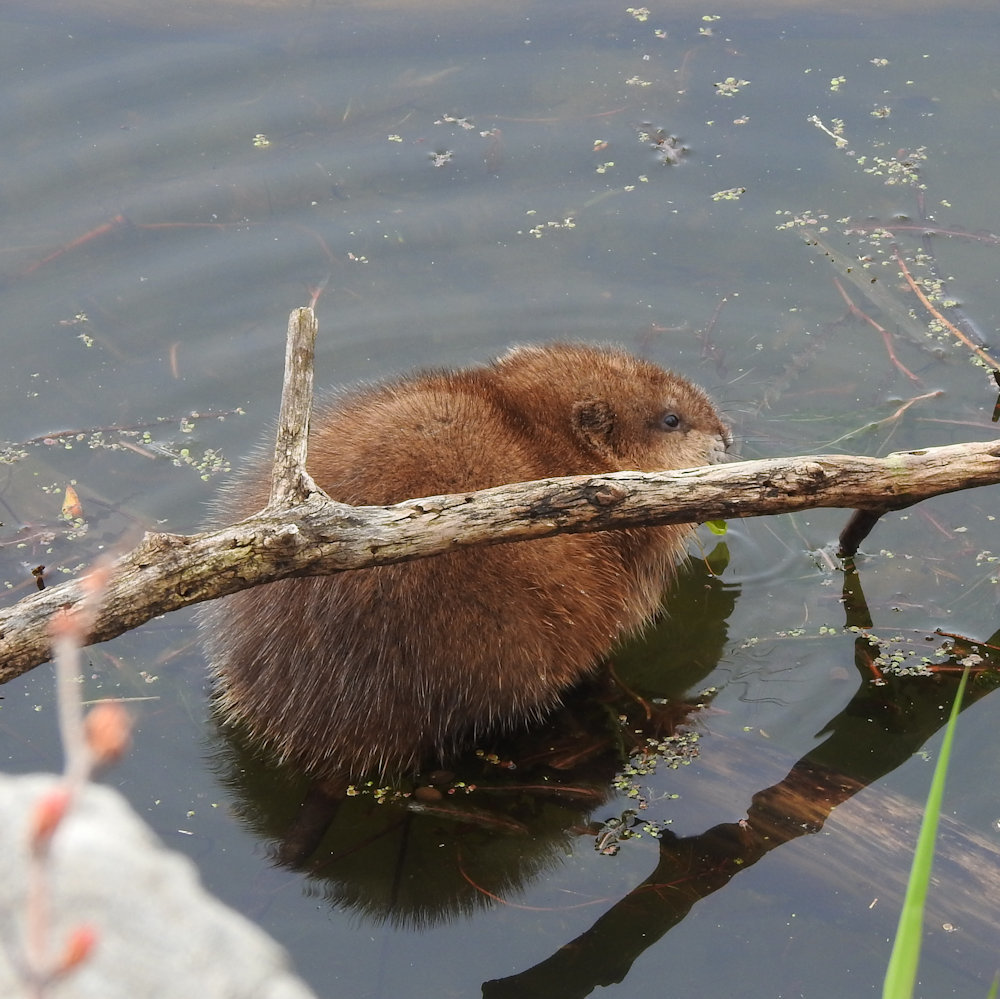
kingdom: Animalia
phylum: Chordata
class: Mammalia
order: Rodentia
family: Cricetidae
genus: Ondatra
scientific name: Ondatra zibethicus
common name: Muskrat
